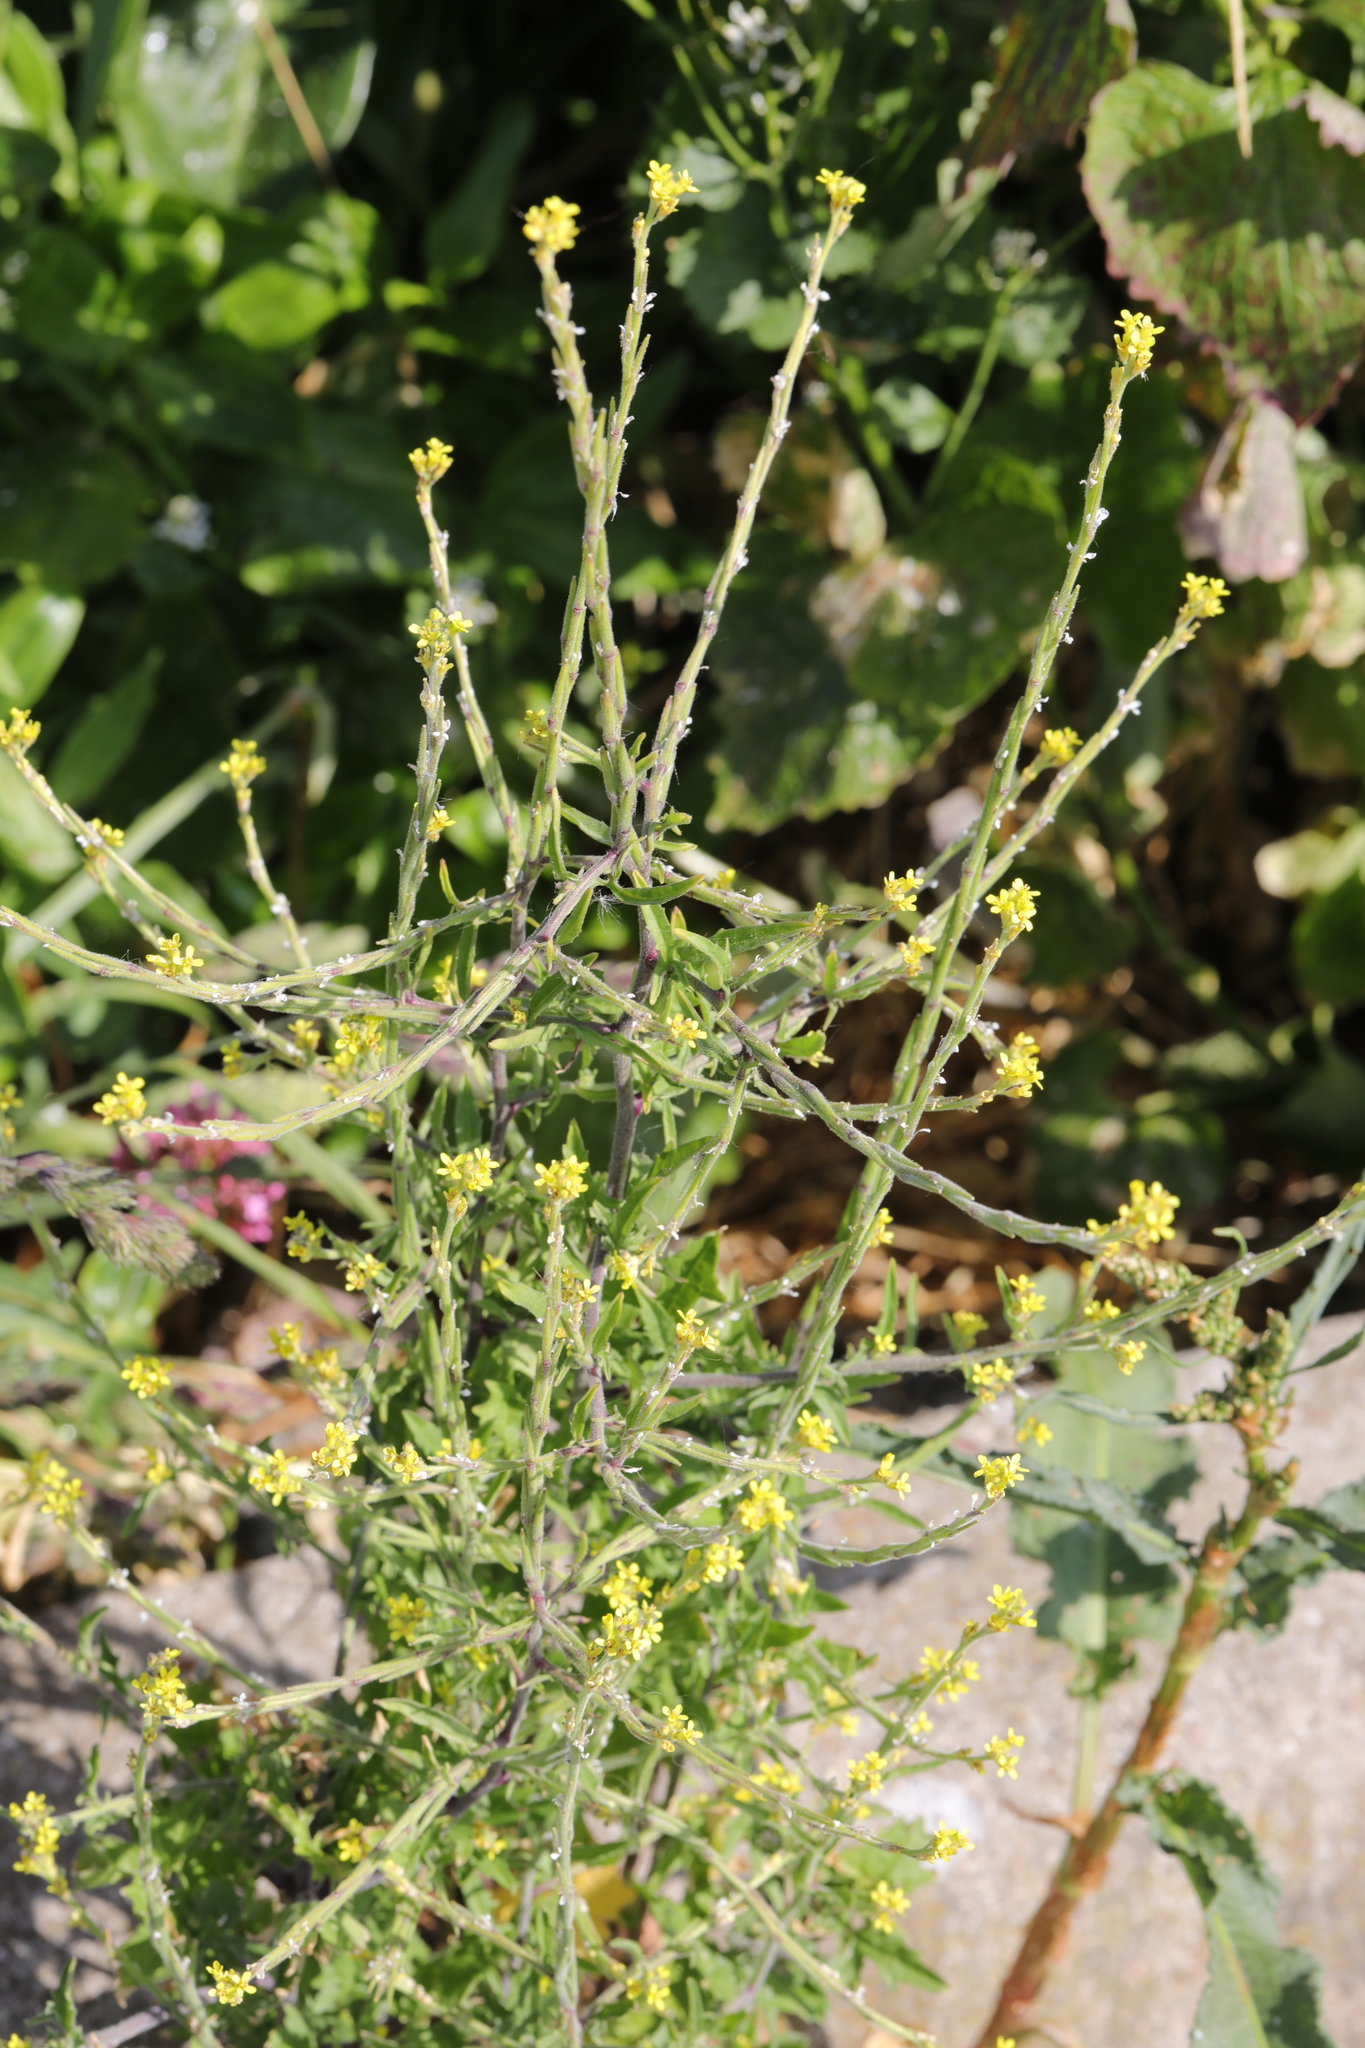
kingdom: Plantae
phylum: Tracheophyta
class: Magnoliopsida
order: Brassicales
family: Brassicaceae
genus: Sisymbrium
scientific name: Sisymbrium officinale
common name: Hedge mustard
